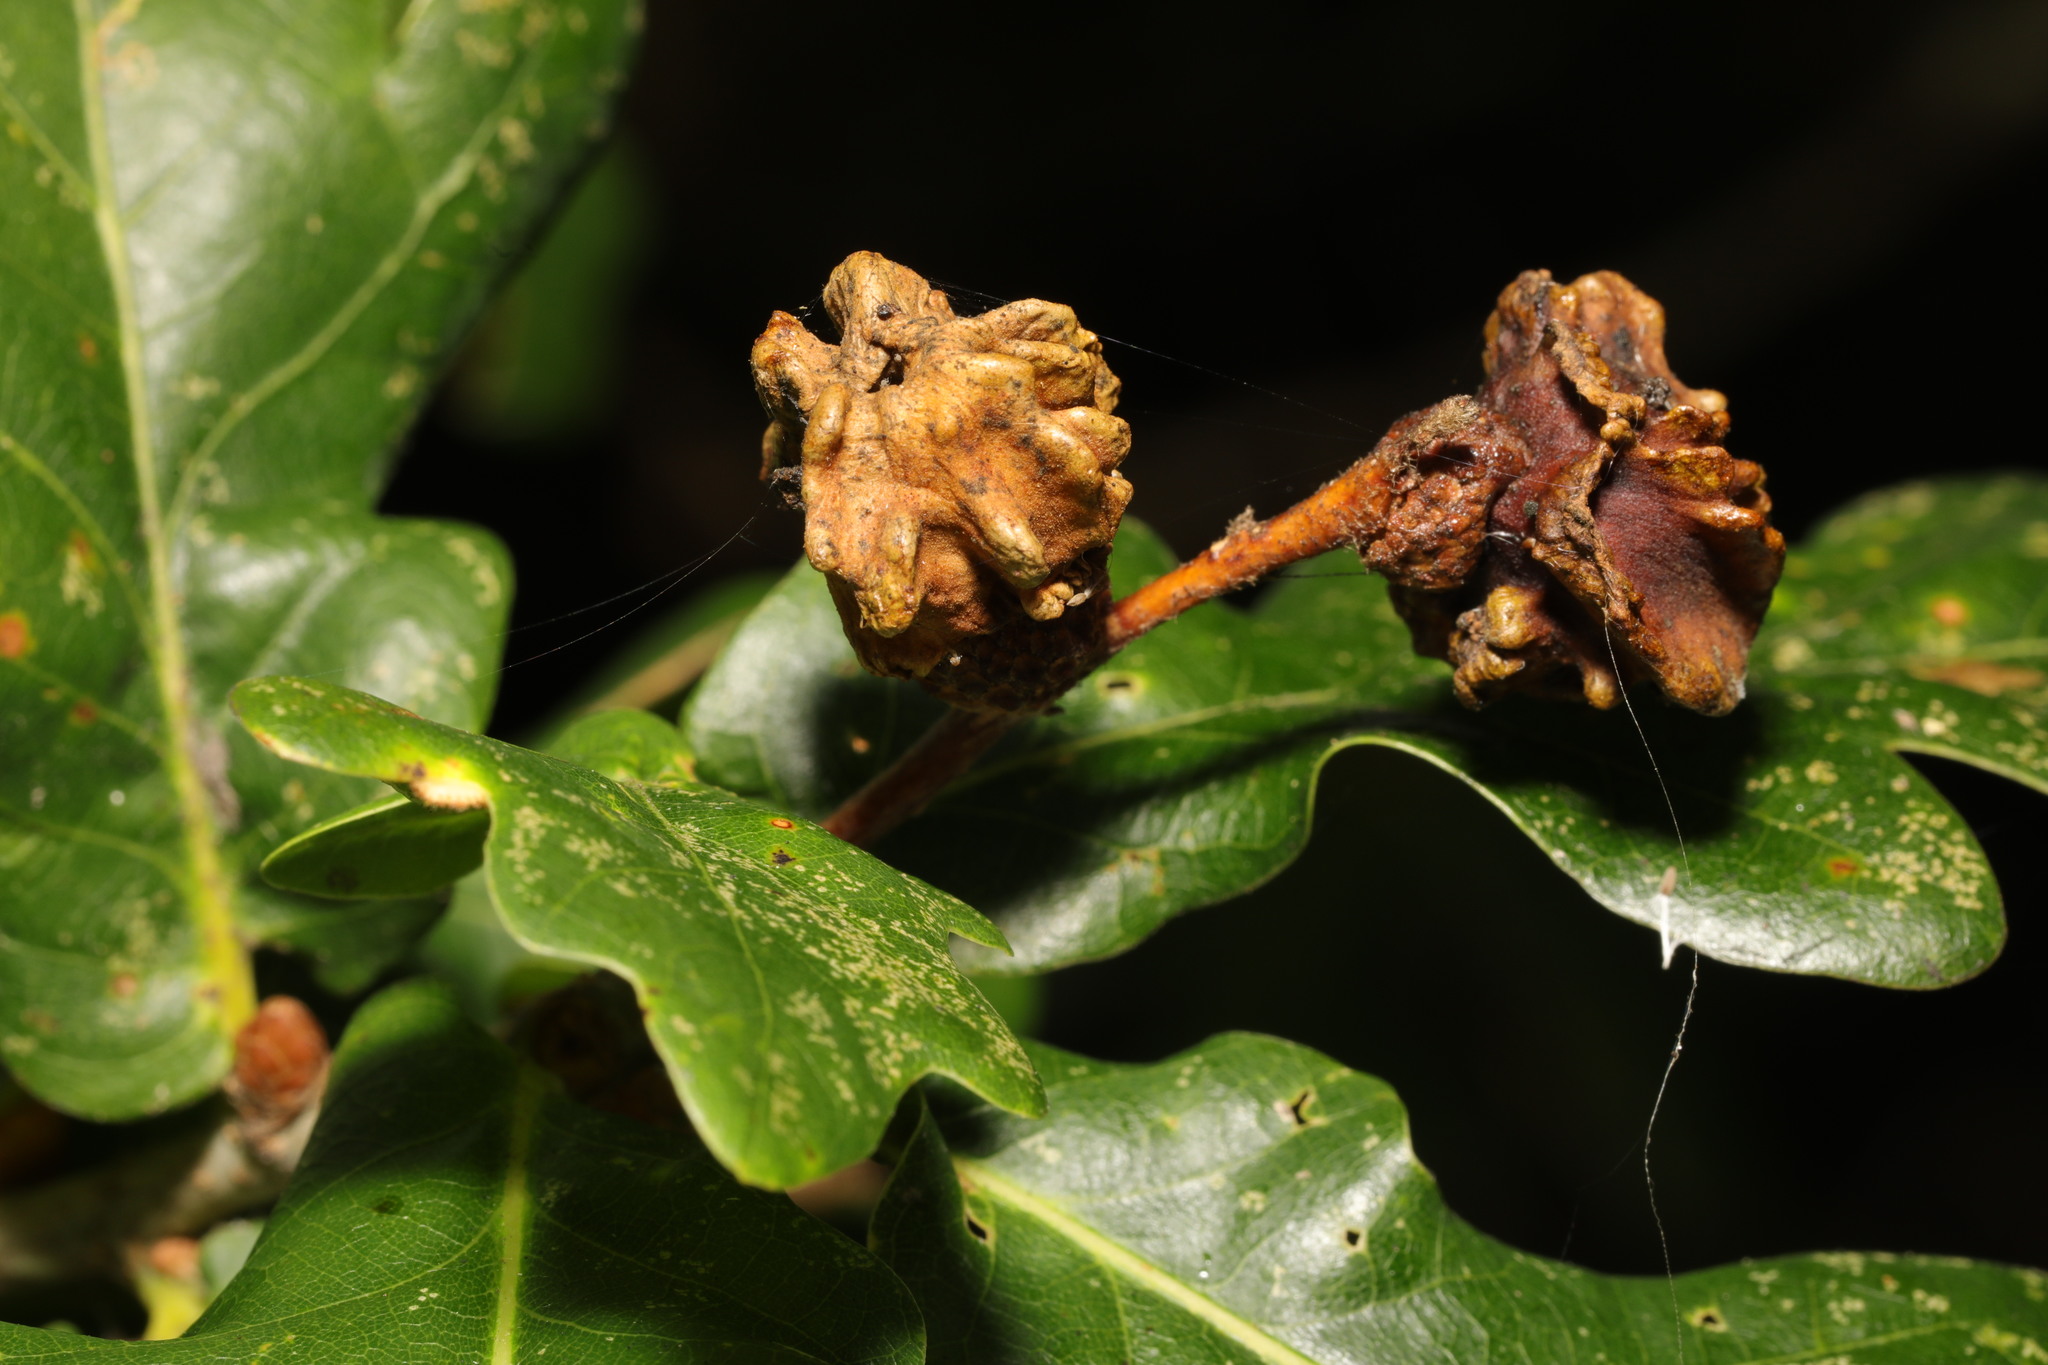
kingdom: Animalia
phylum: Arthropoda
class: Insecta
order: Hymenoptera
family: Cynipidae
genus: Andricus
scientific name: Andricus quercuscalicis
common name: Knopper gall
